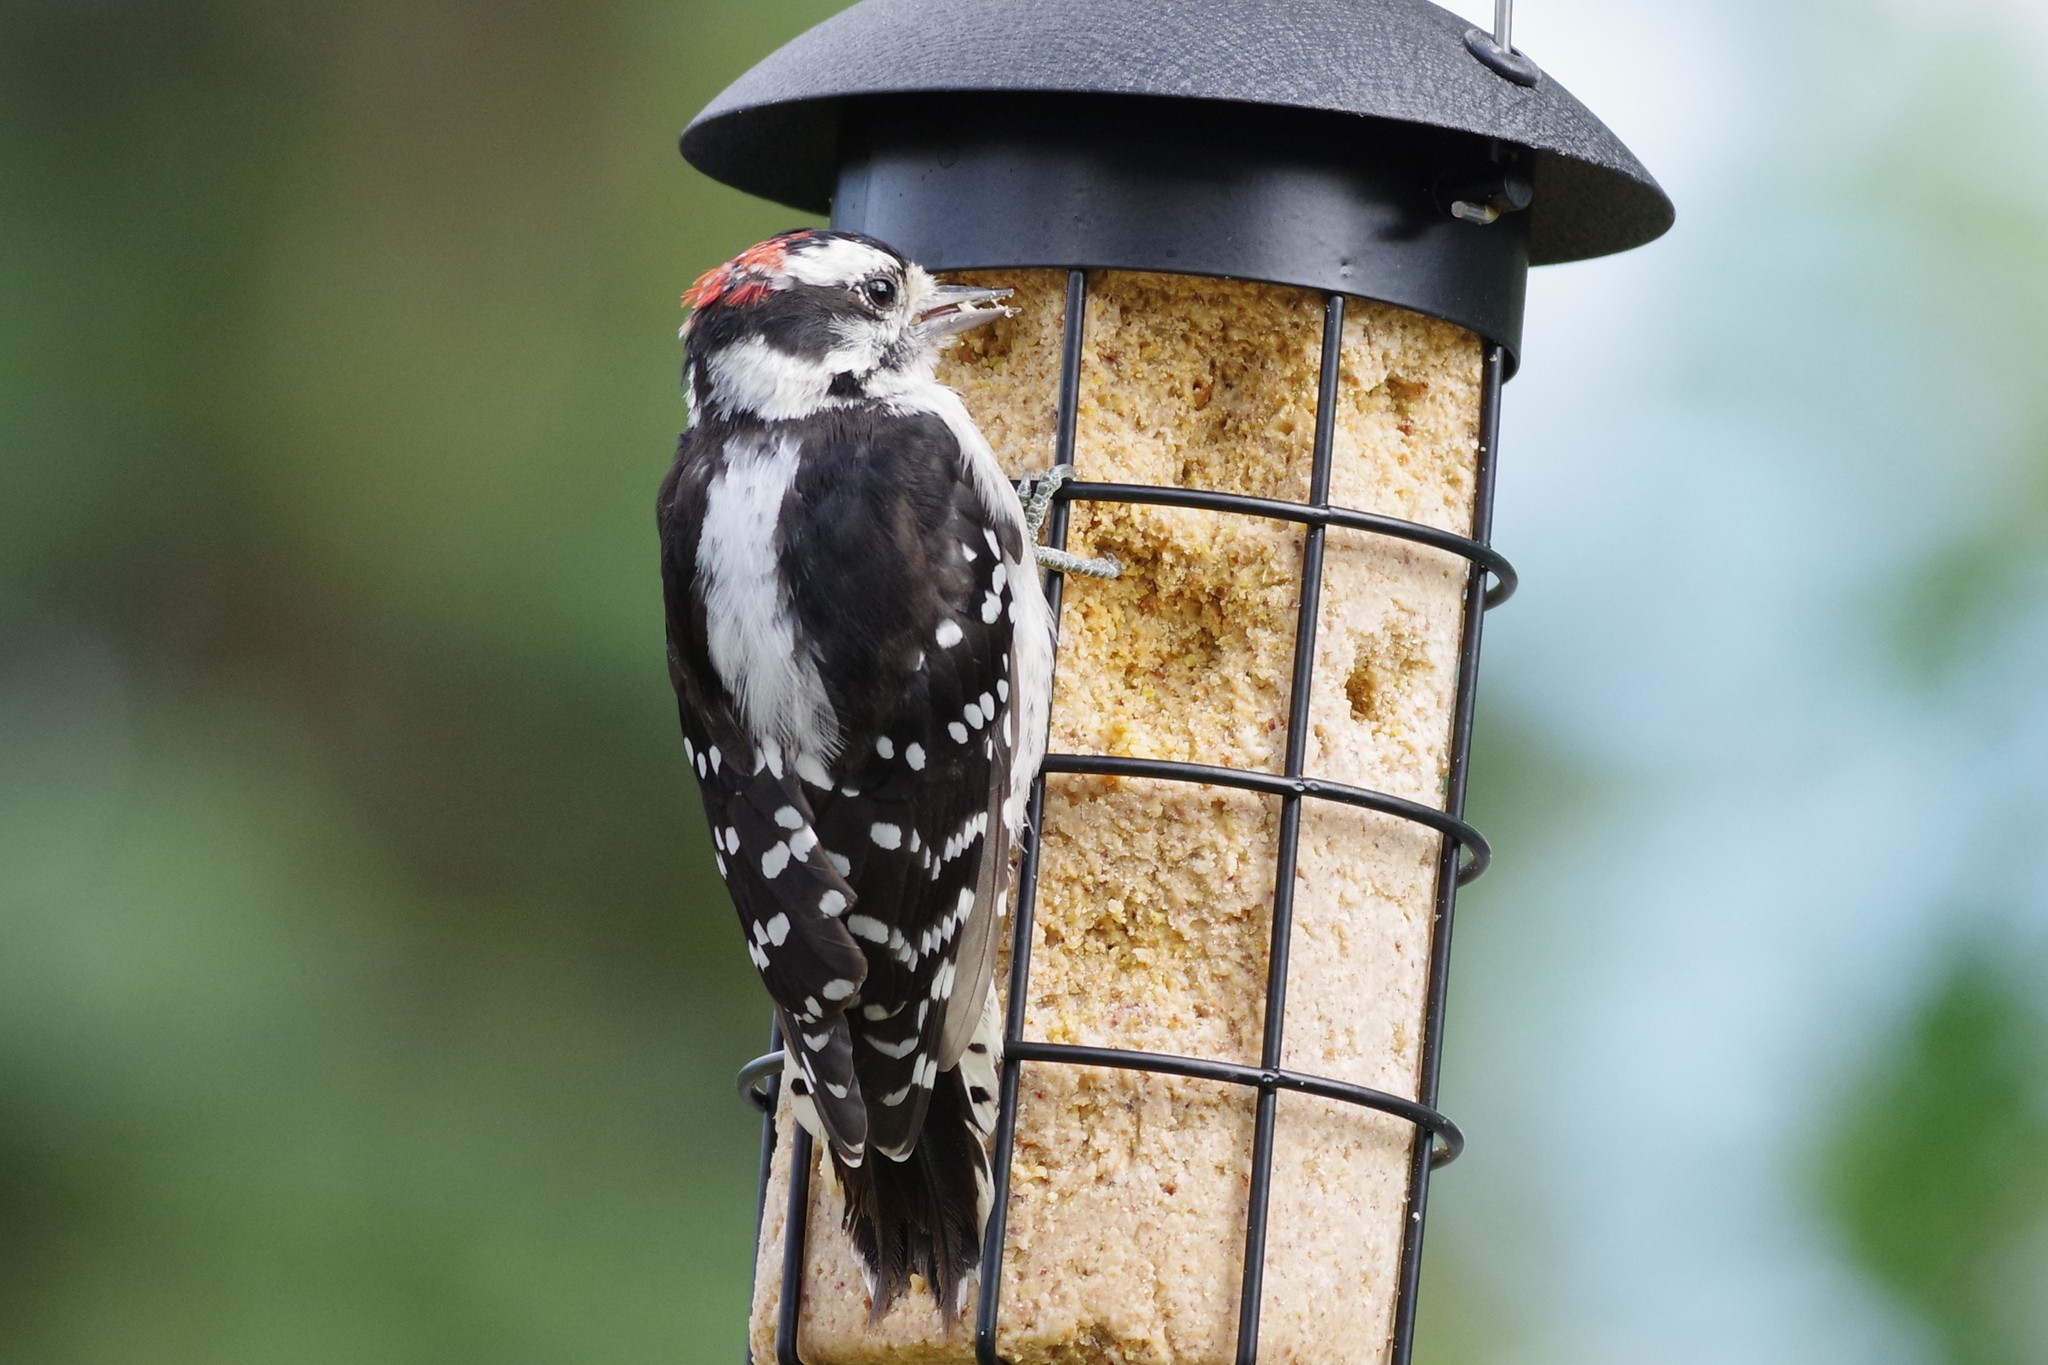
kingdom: Animalia
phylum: Chordata
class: Aves
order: Piciformes
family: Picidae
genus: Dryobates
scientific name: Dryobates pubescens
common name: Downy woodpecker
